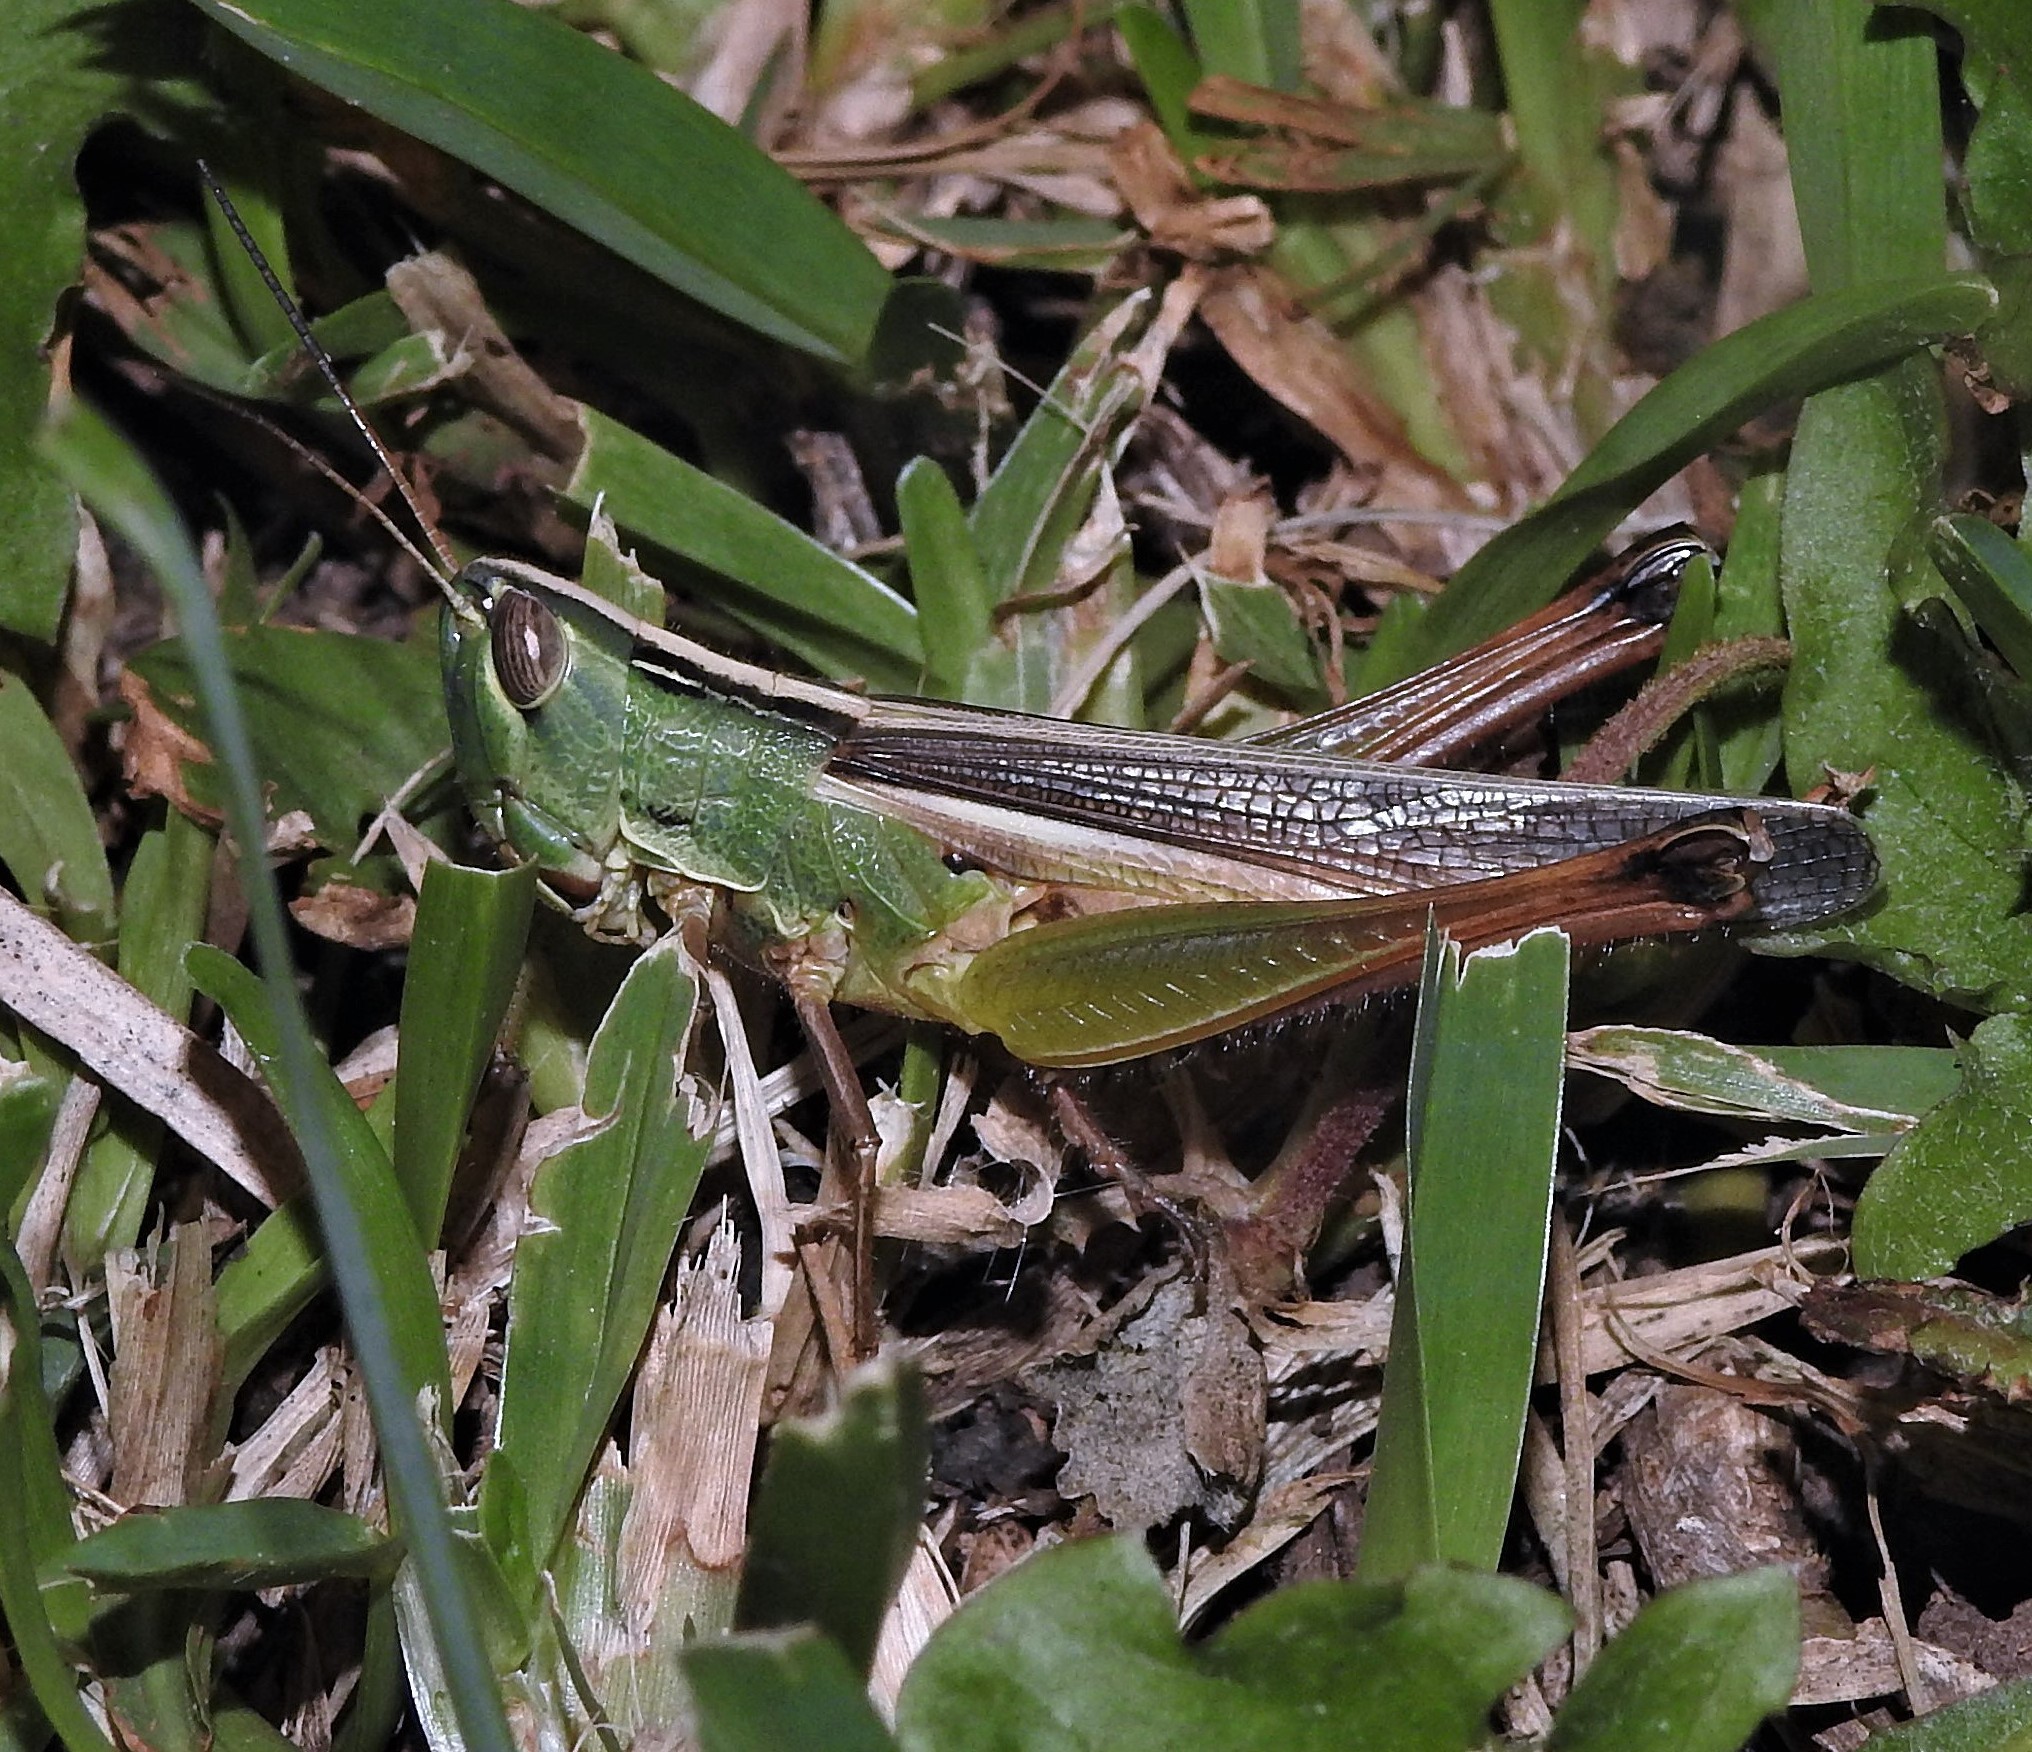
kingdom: Animalia
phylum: Arthropoda
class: Insecta
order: Orthoptera
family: Acrididae
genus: Staurorhectus
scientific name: Staurorhectus longicornis
